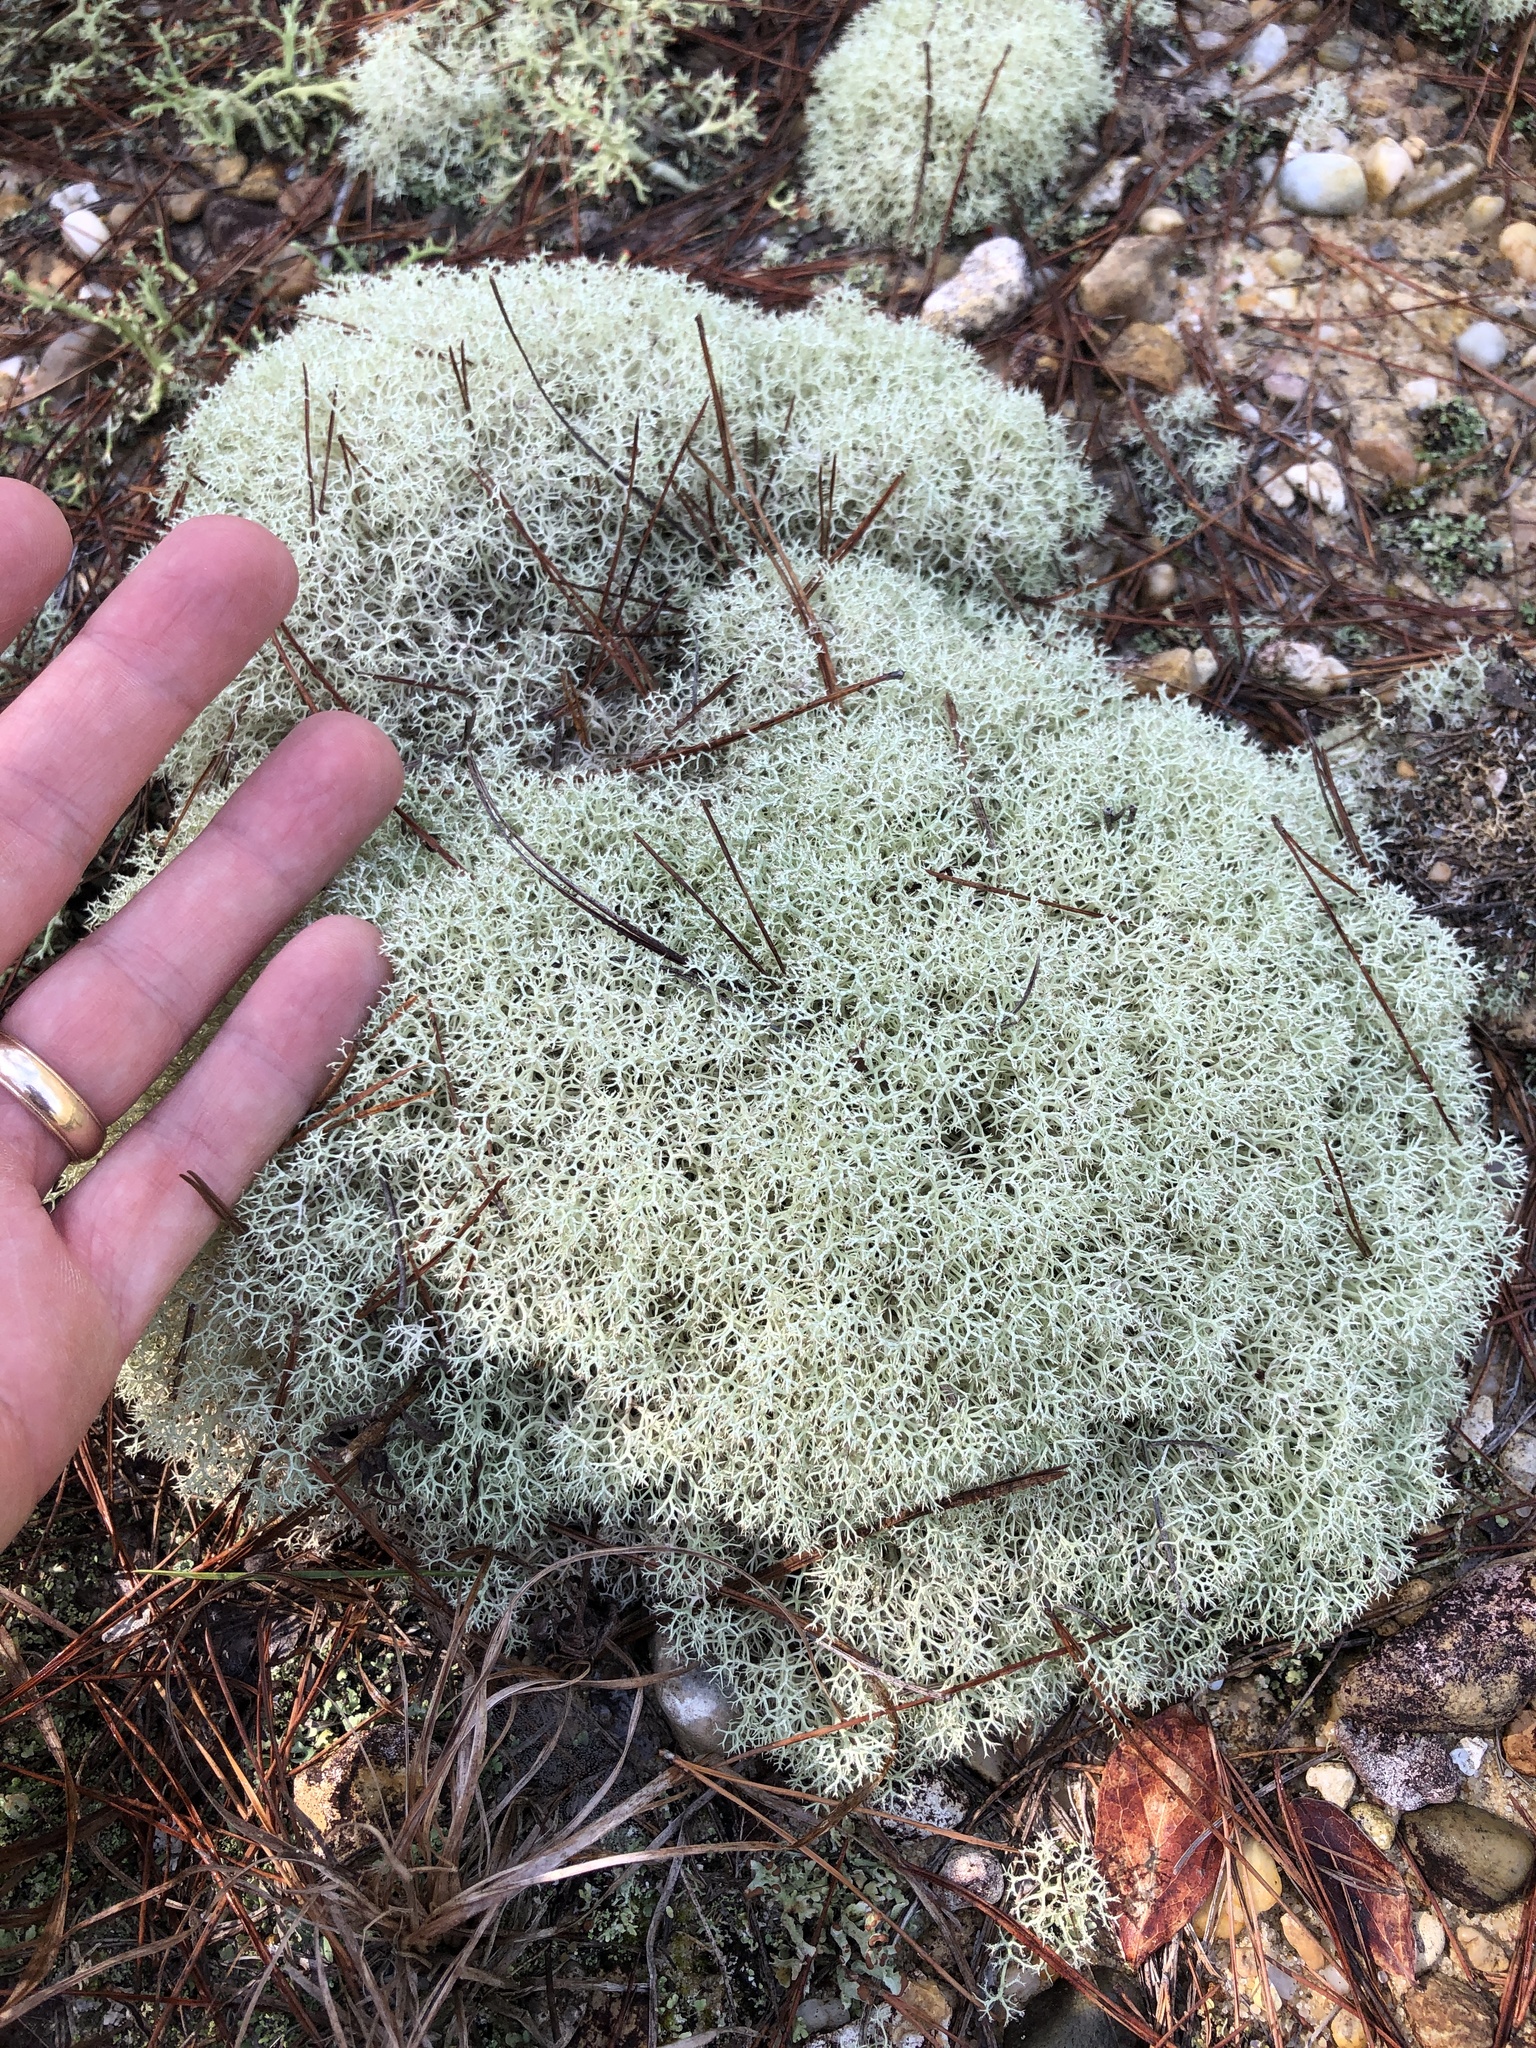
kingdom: Fungi
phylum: Ascomycota
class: Lecanoromycetes
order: Lecanorales
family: Cladoniaceae
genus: Cladonia
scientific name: Cladonia subtenuis
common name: Dixie reindeer lichen
